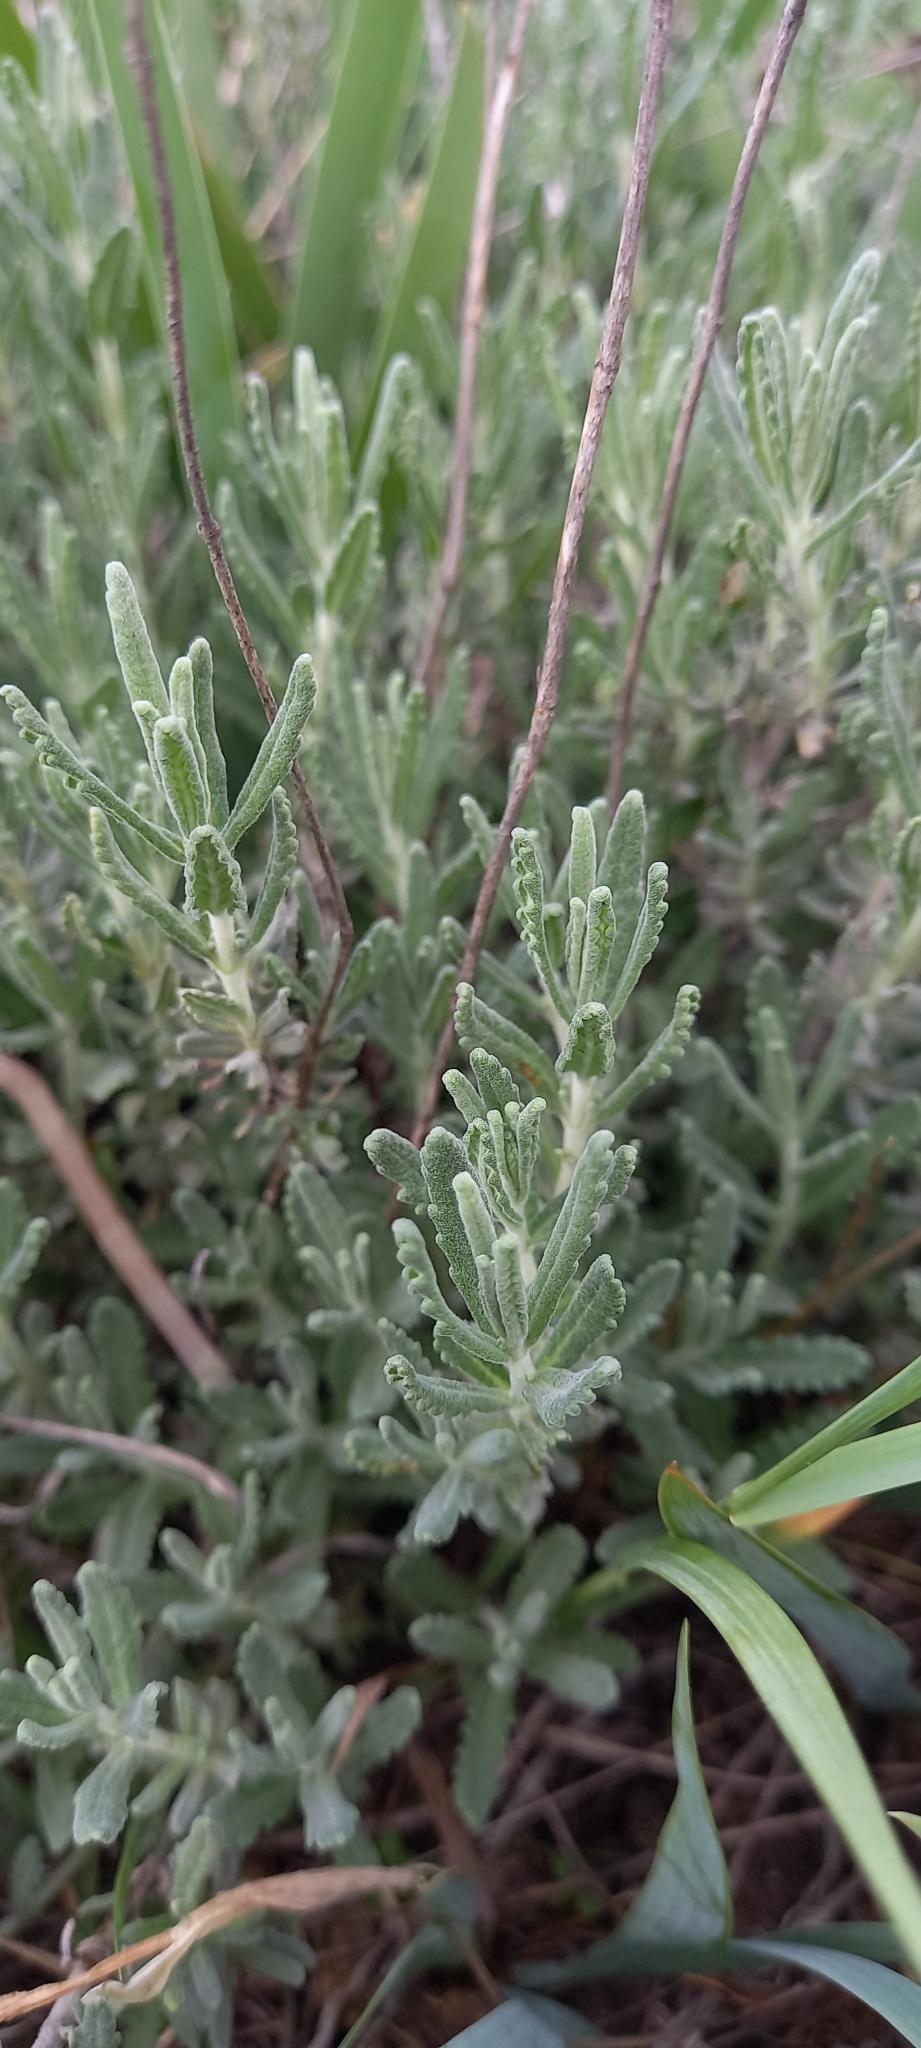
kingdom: Plantae
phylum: Tracheophyta
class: Magnoliopsida
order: Lamiales
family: Lamiaceae
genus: Teucrium
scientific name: Teucrium polium
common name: Poley
